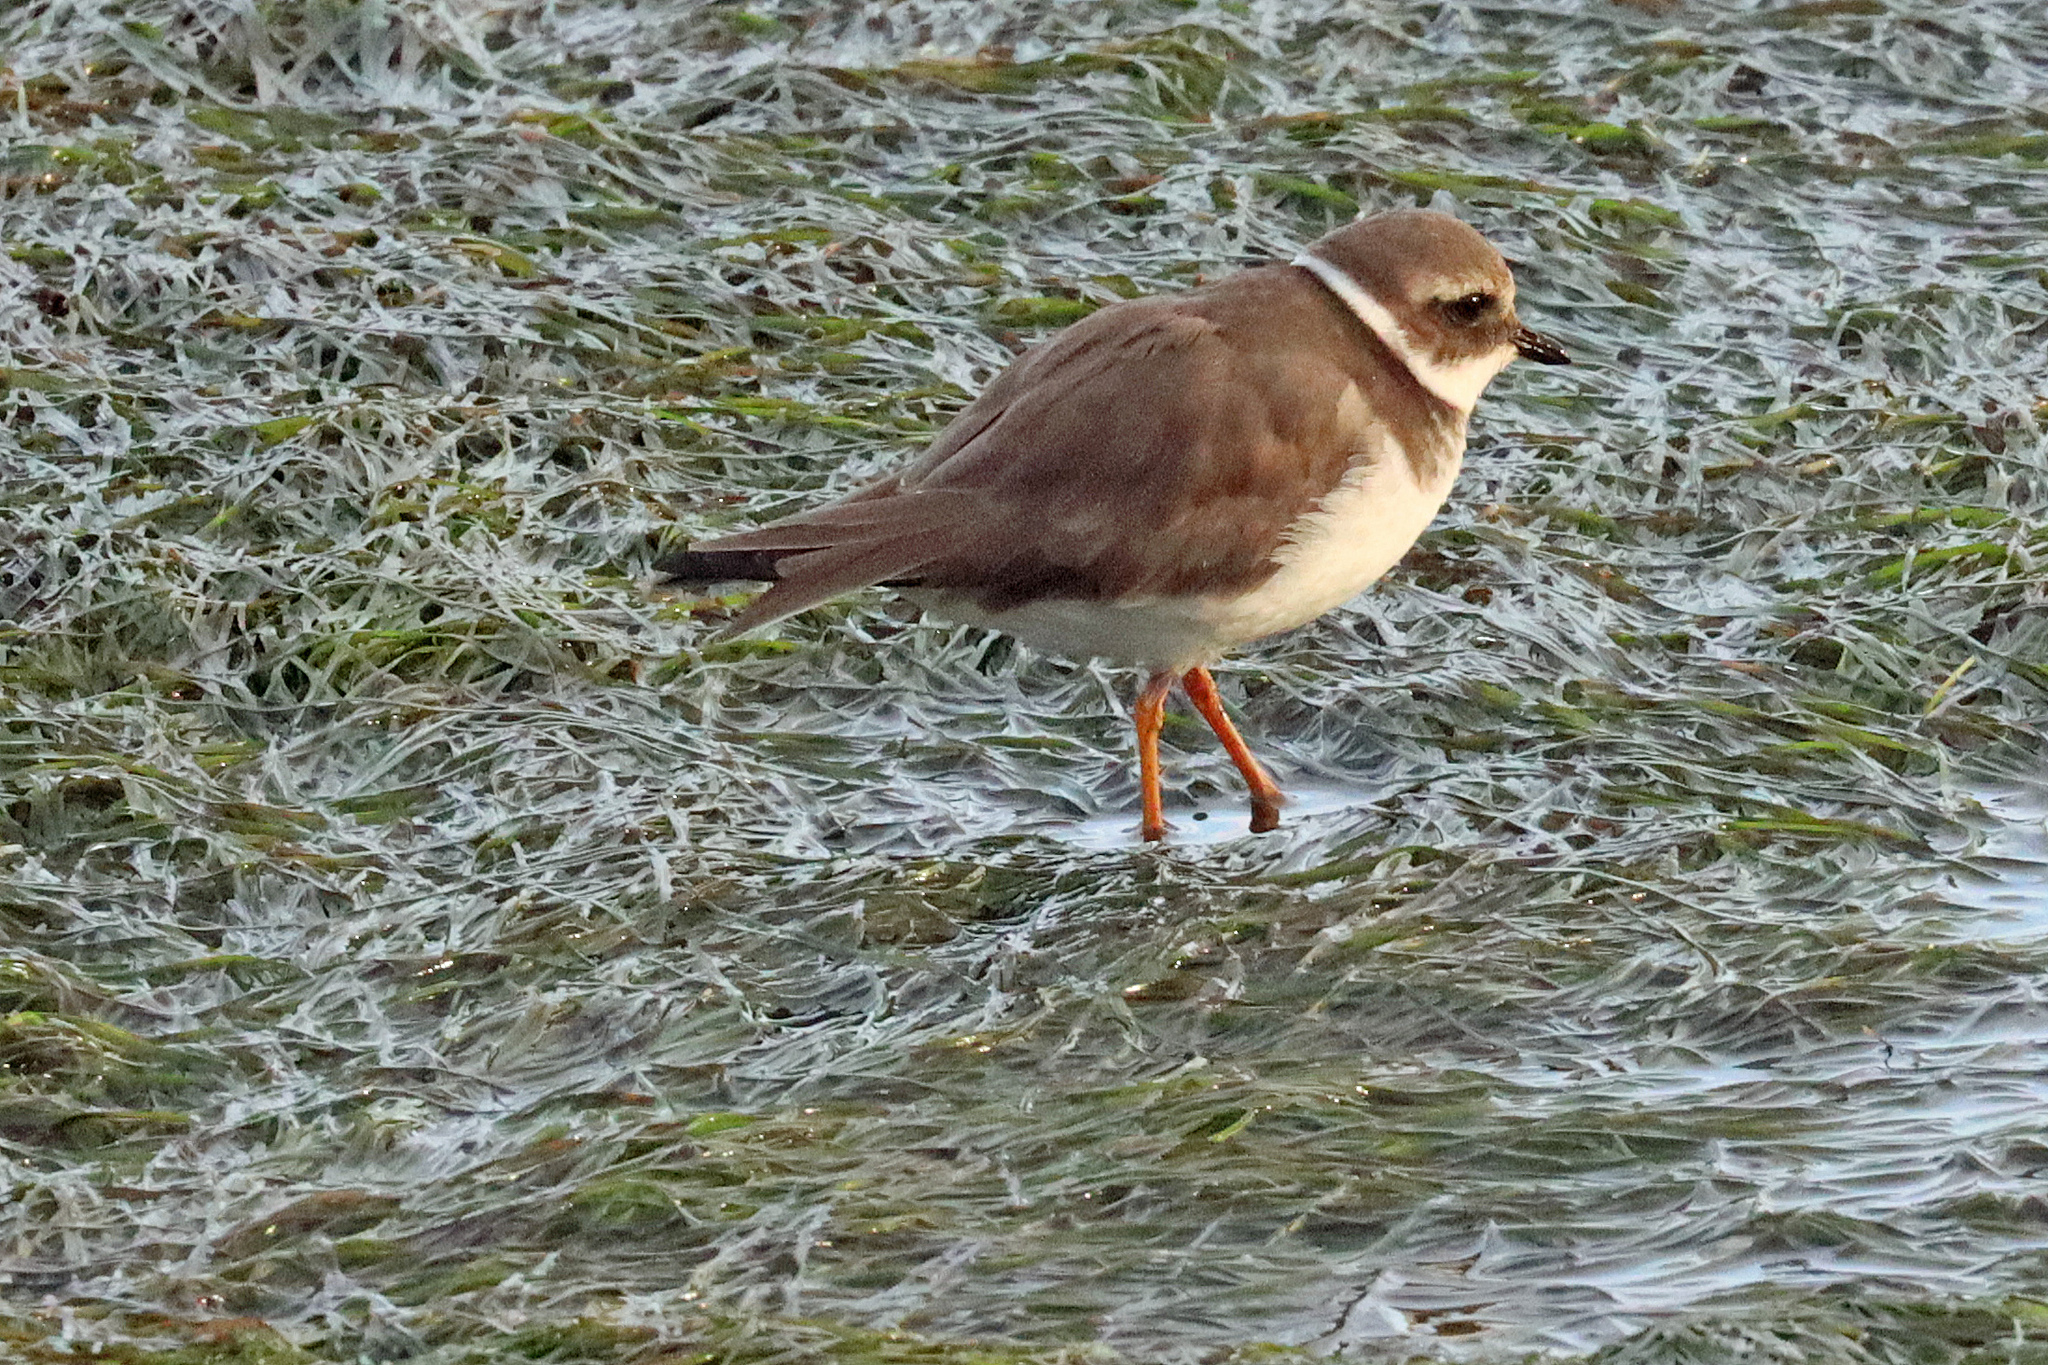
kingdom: Animalia
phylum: Chordata
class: Aves
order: Charadriiformes
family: Charadriidae
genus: Charadrius
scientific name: Charadrius hiaticula
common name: Common ringed plover
